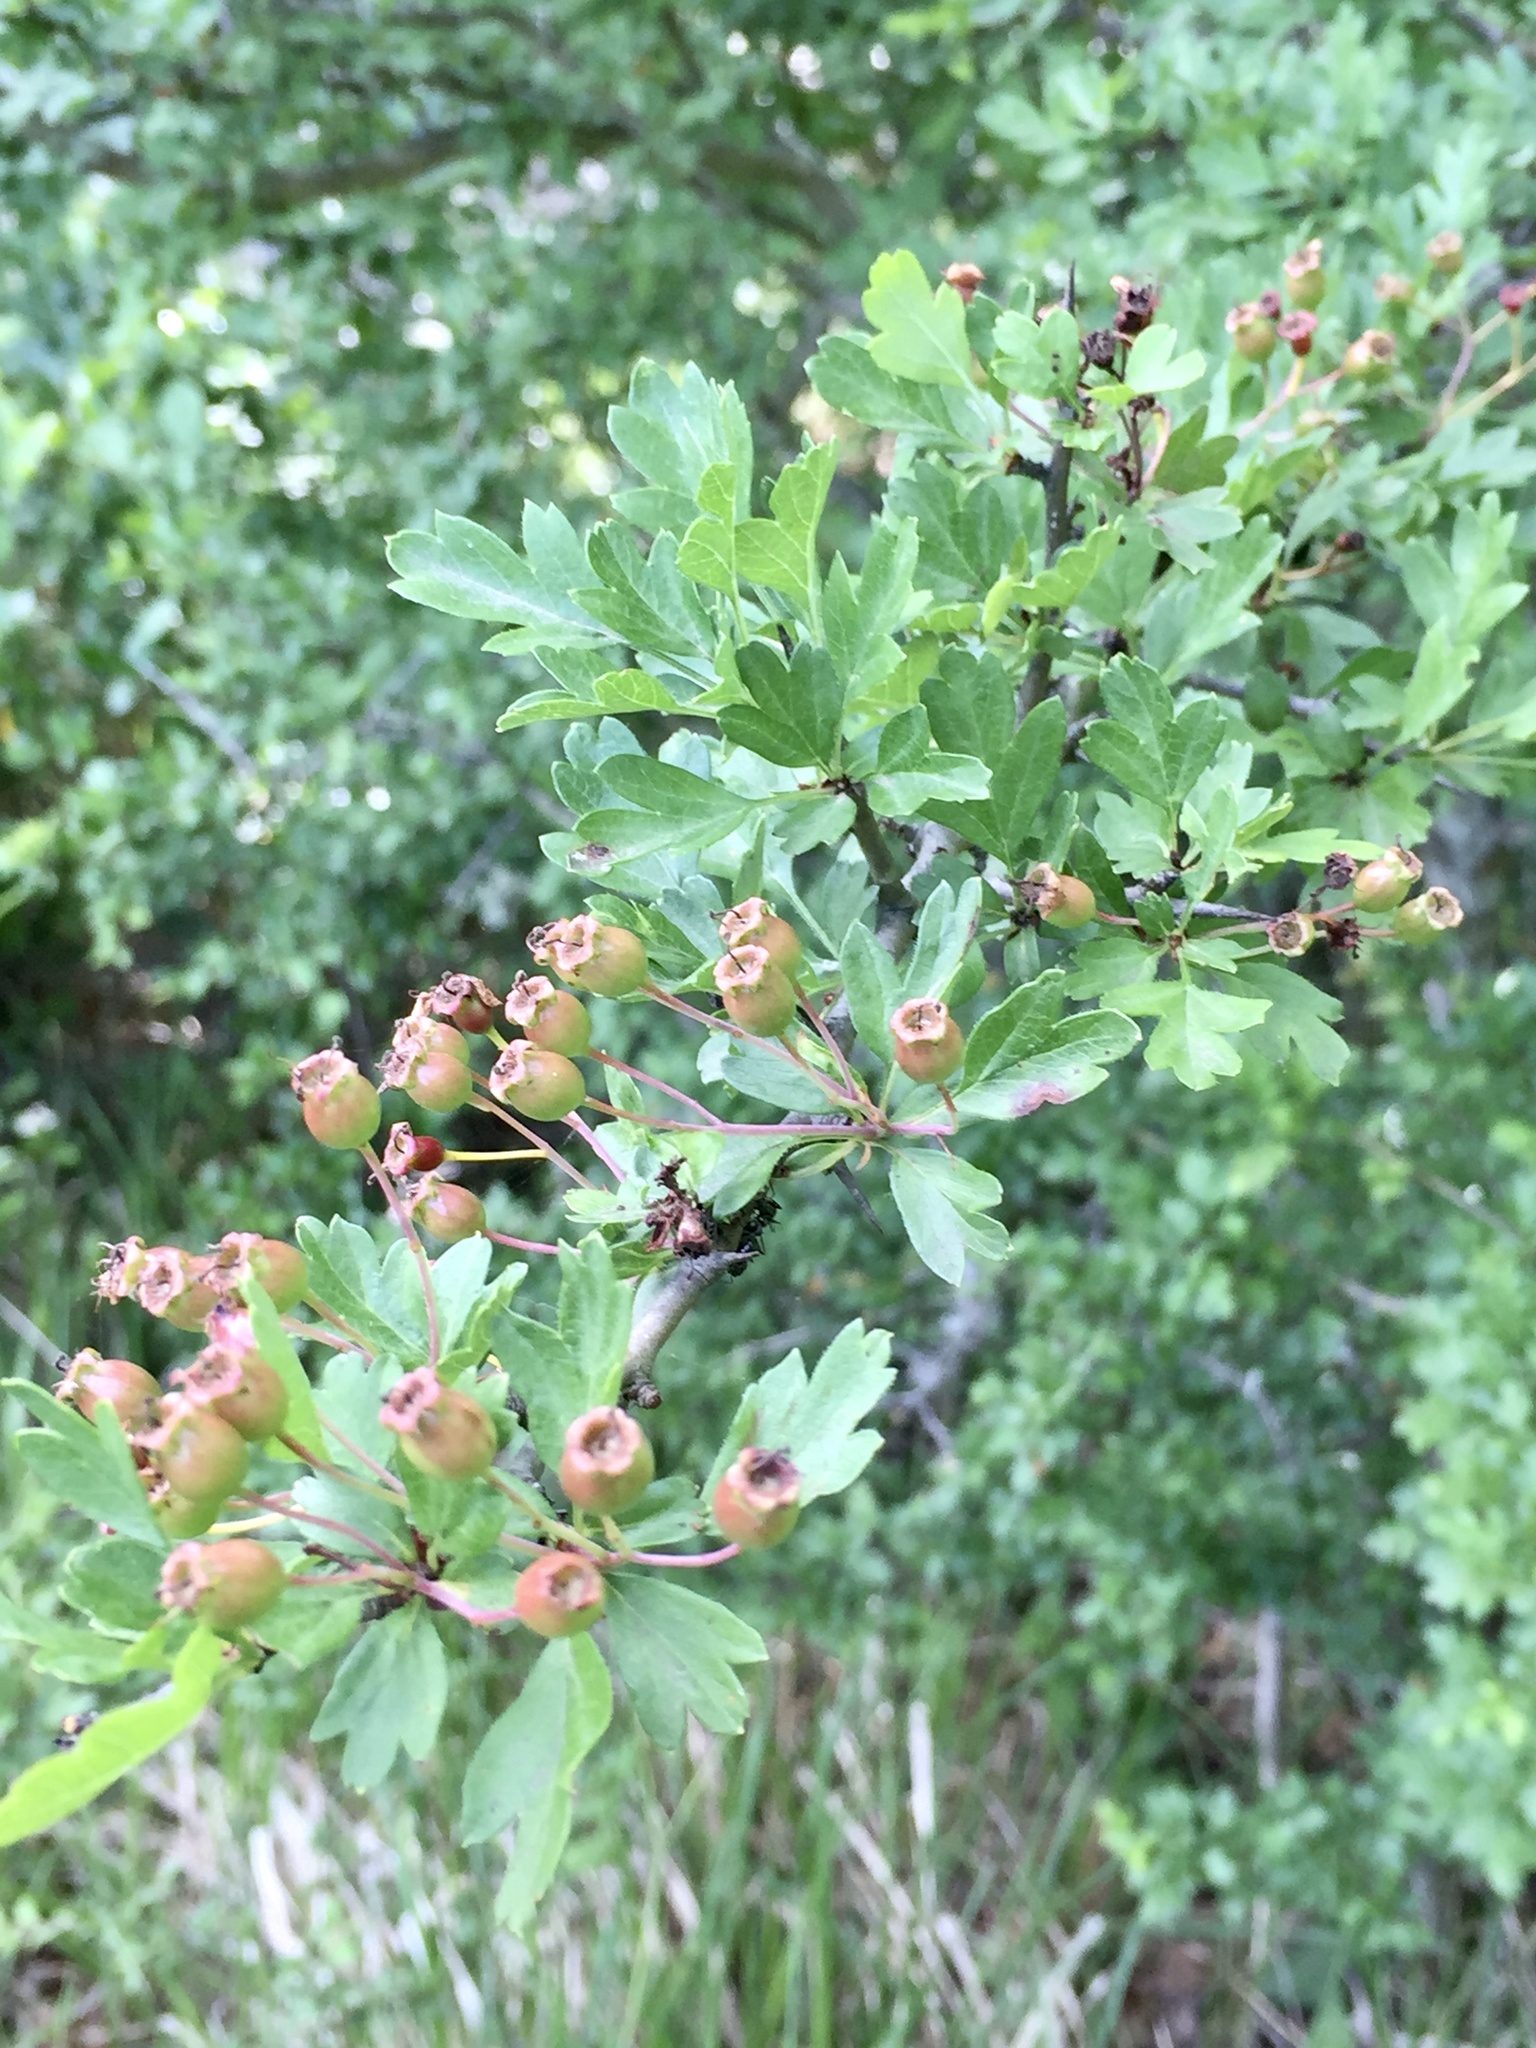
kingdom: Plantae
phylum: Tracheophyta
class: Magnoliopsida
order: Rosales
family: Rosaceae
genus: Crataegus
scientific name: Crataegus monogyna
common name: Hawthorn
